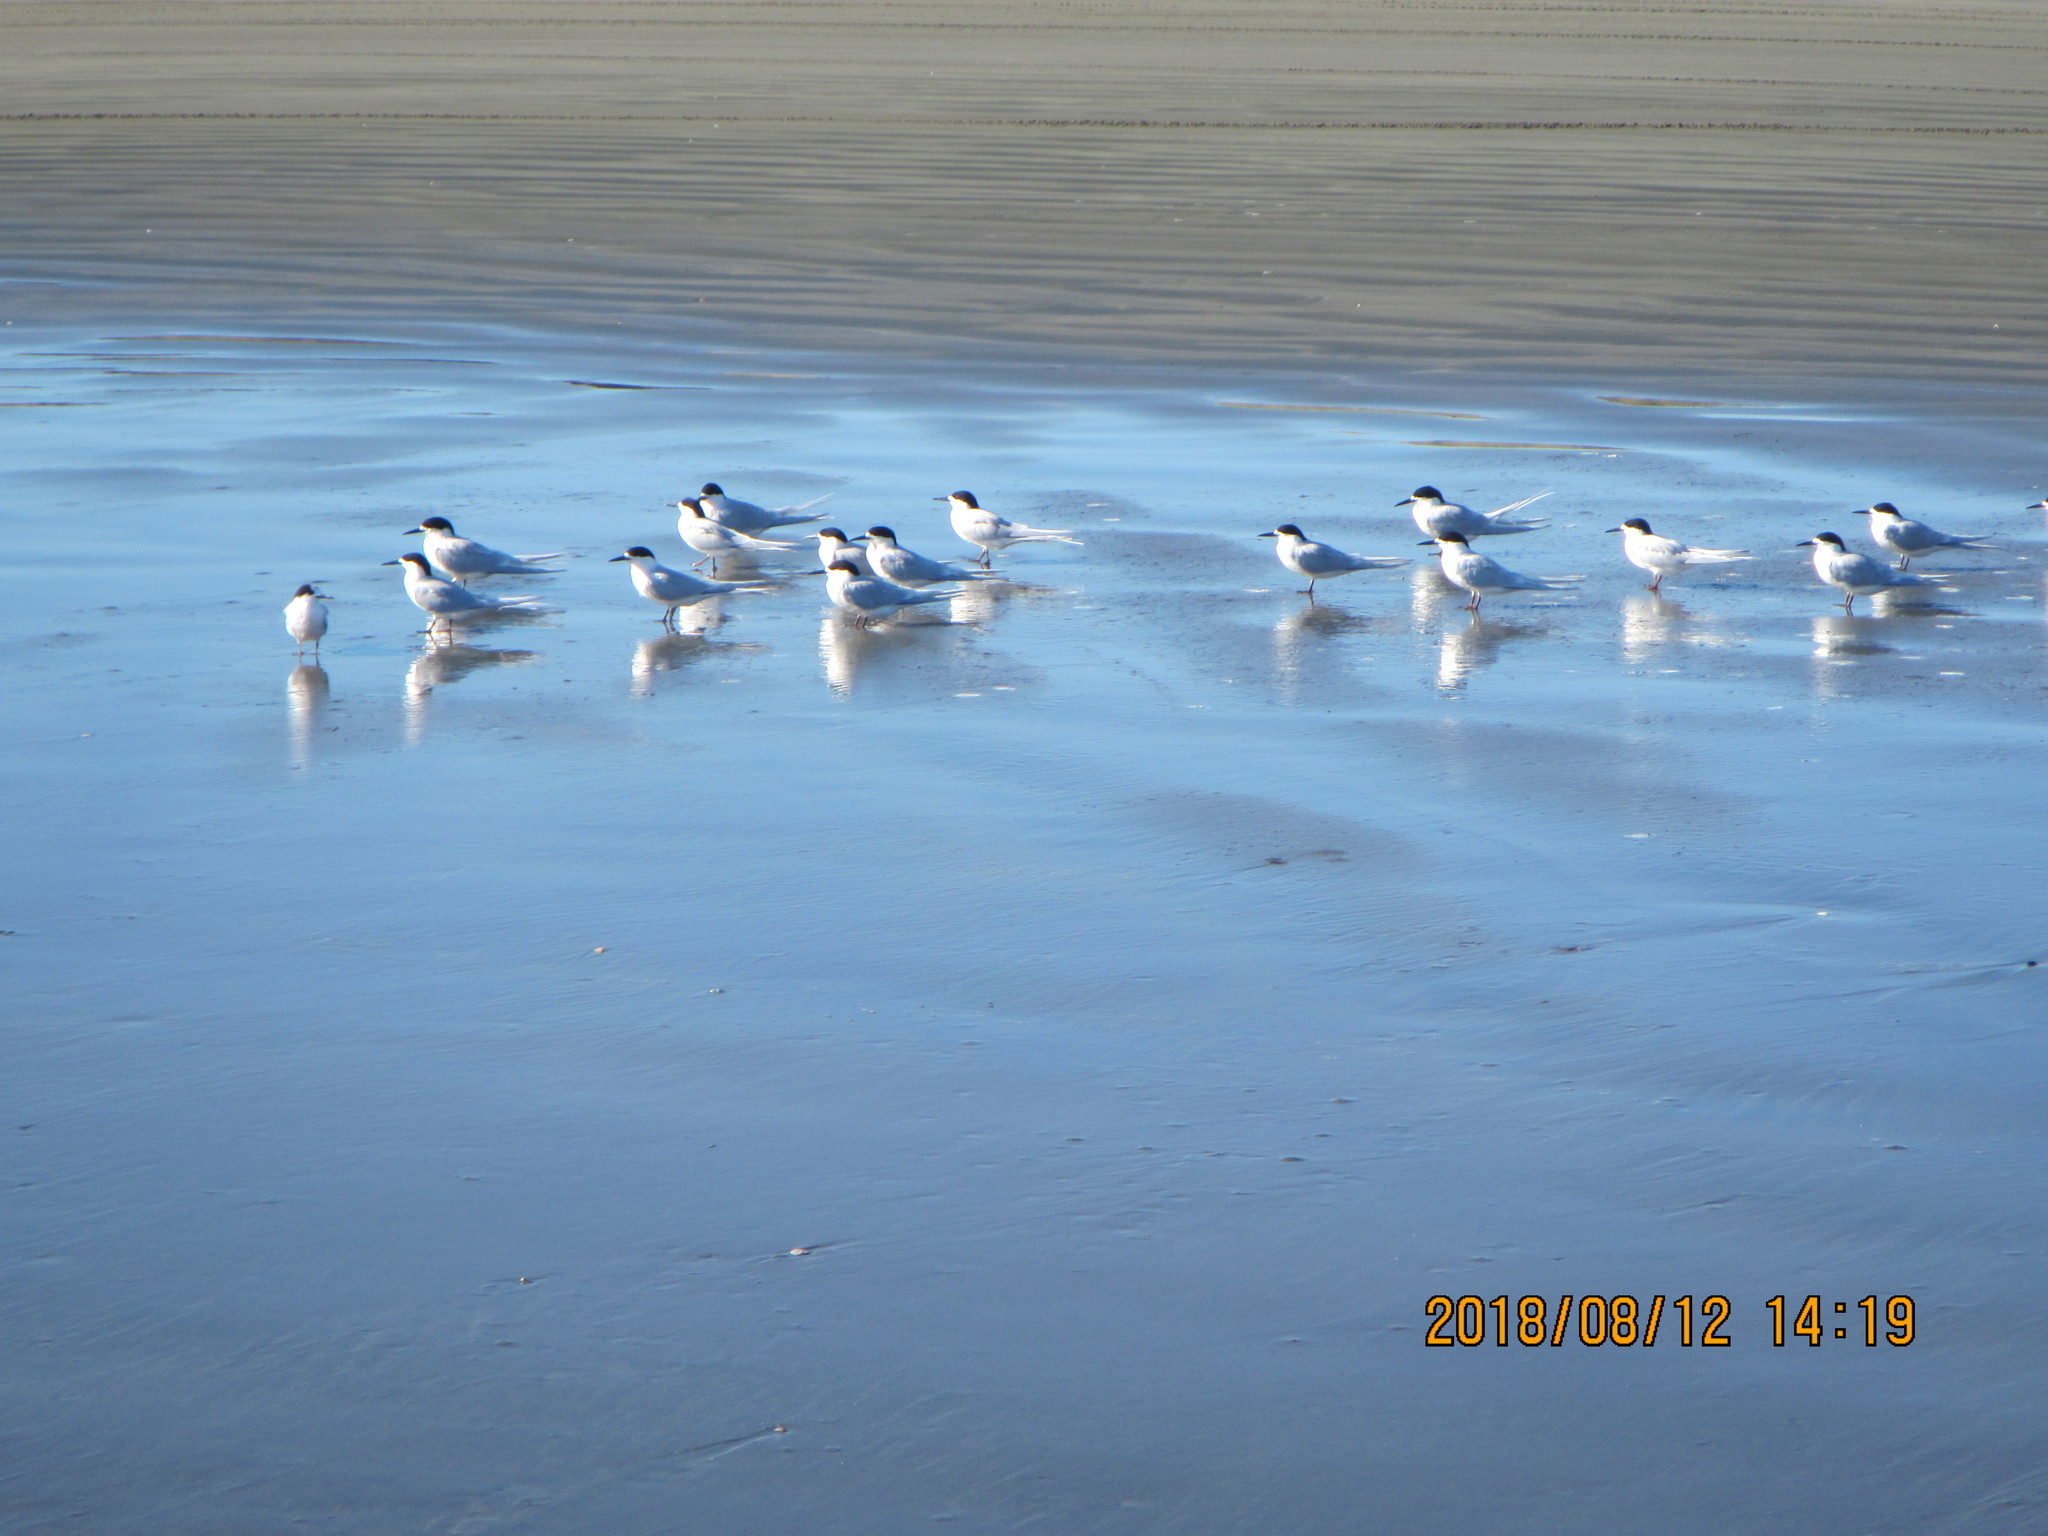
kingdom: Animalia
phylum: Chordata
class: Aves
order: Charadriiformes
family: Laridae
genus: Sterna
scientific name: Sterna striata
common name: White-fronted tern
